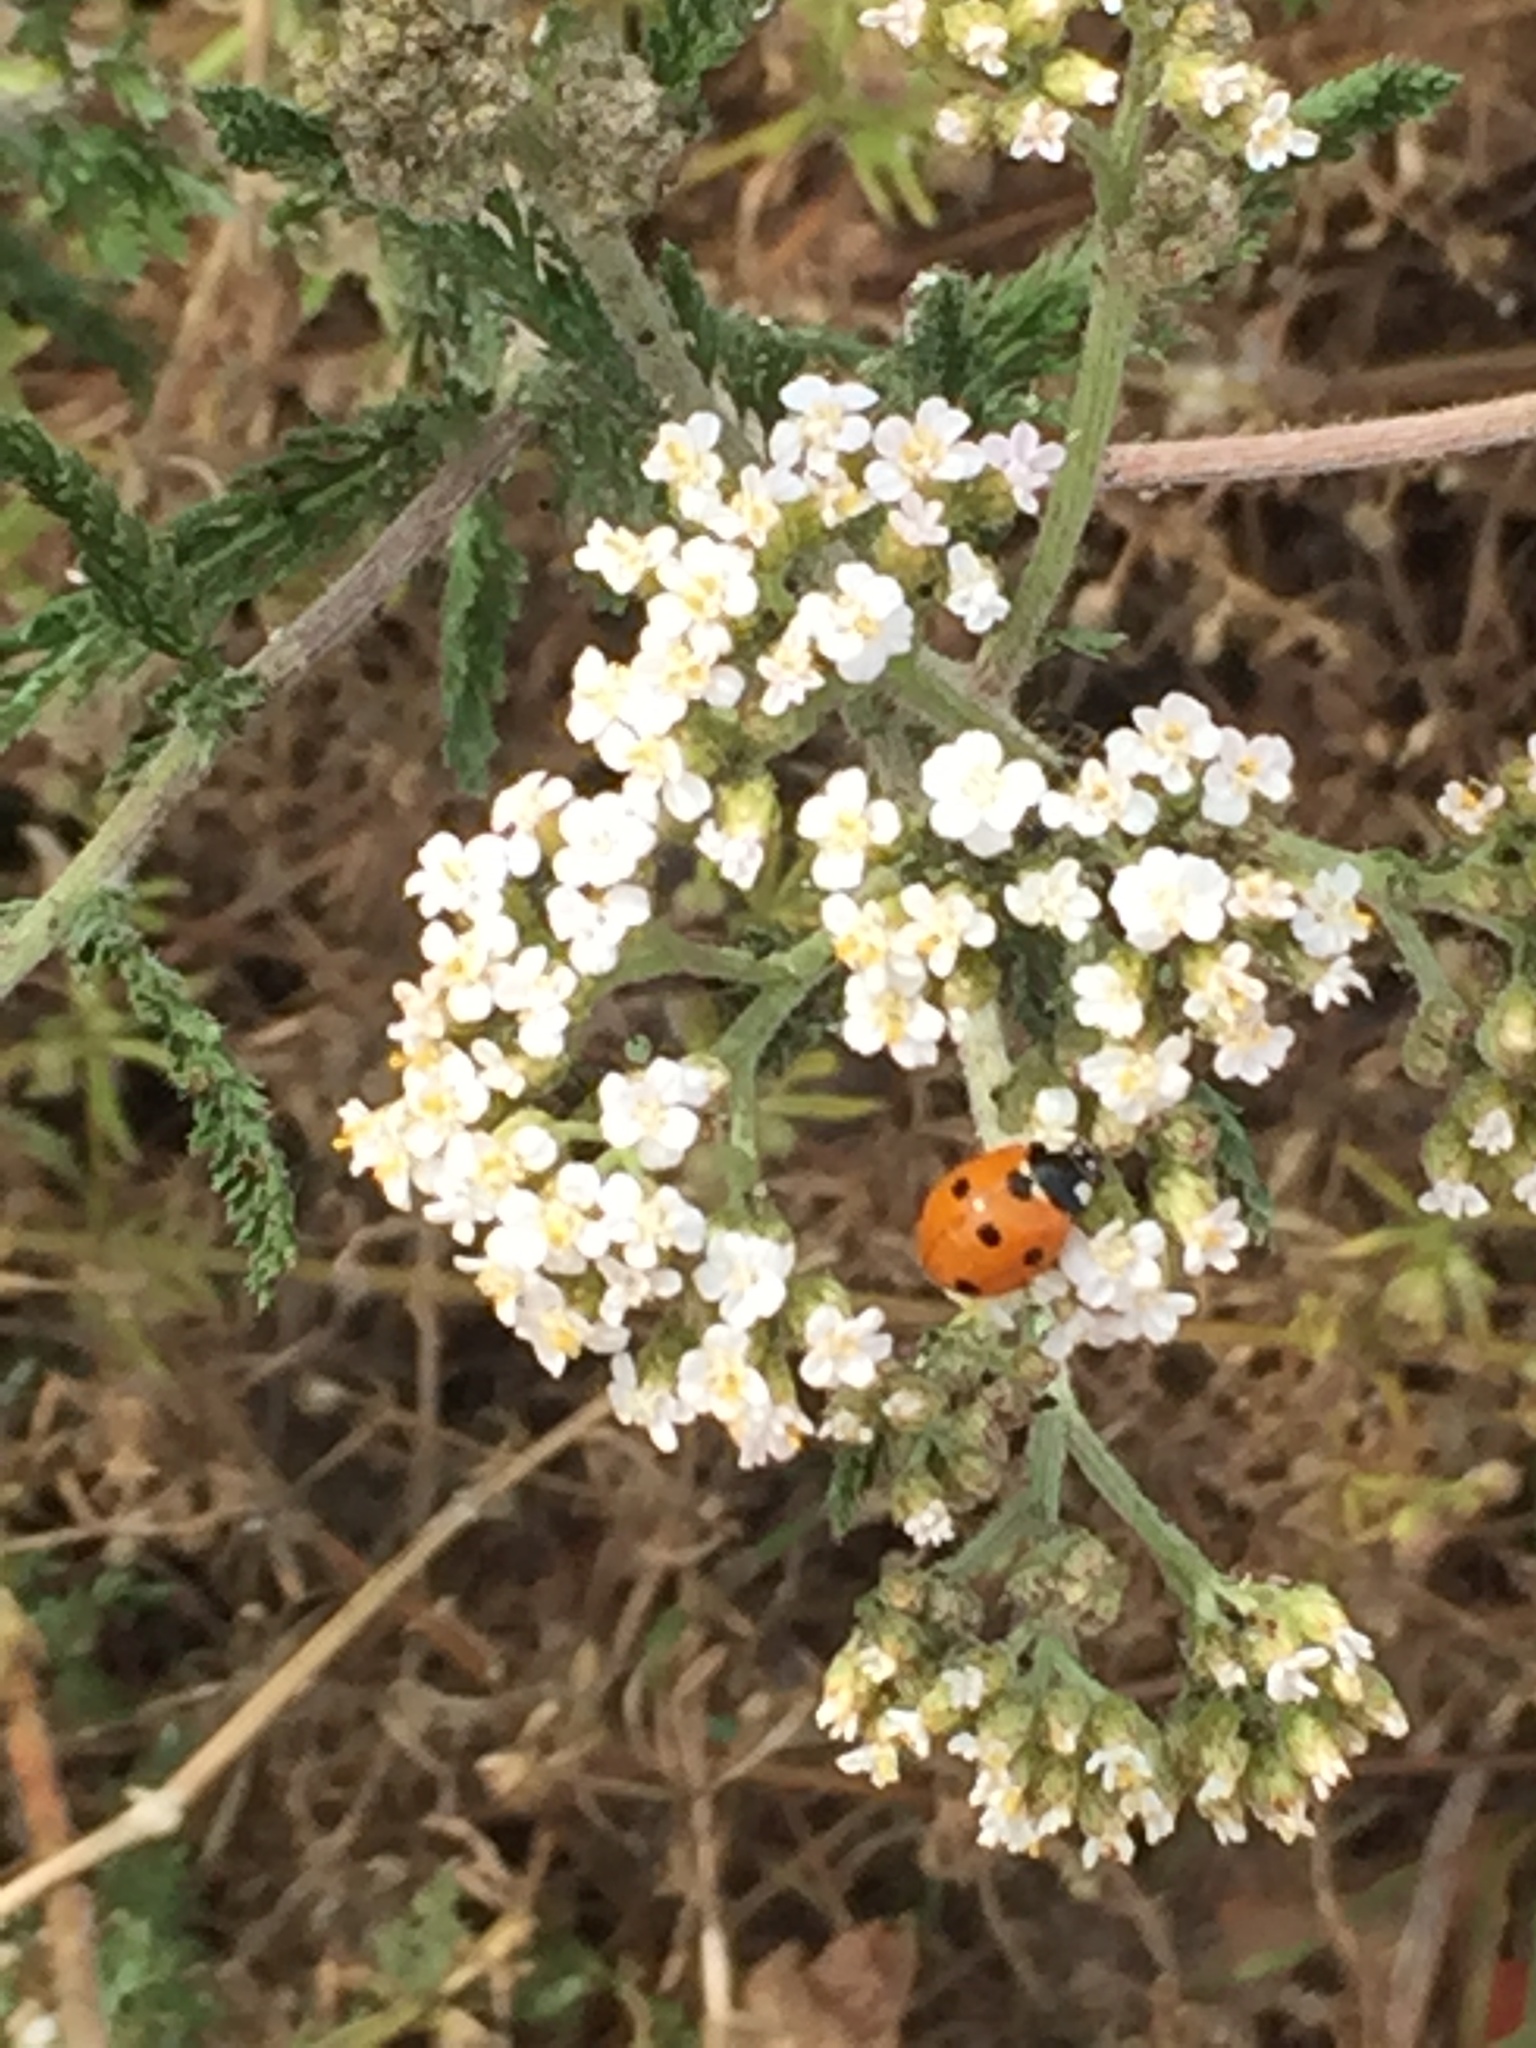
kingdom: Animalia
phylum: Arthropoda
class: Insecta
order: Coleoptera
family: Coccinellidae
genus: Coccinella
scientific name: Coccinella septempunctata
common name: Sevenspotted lady beetle
